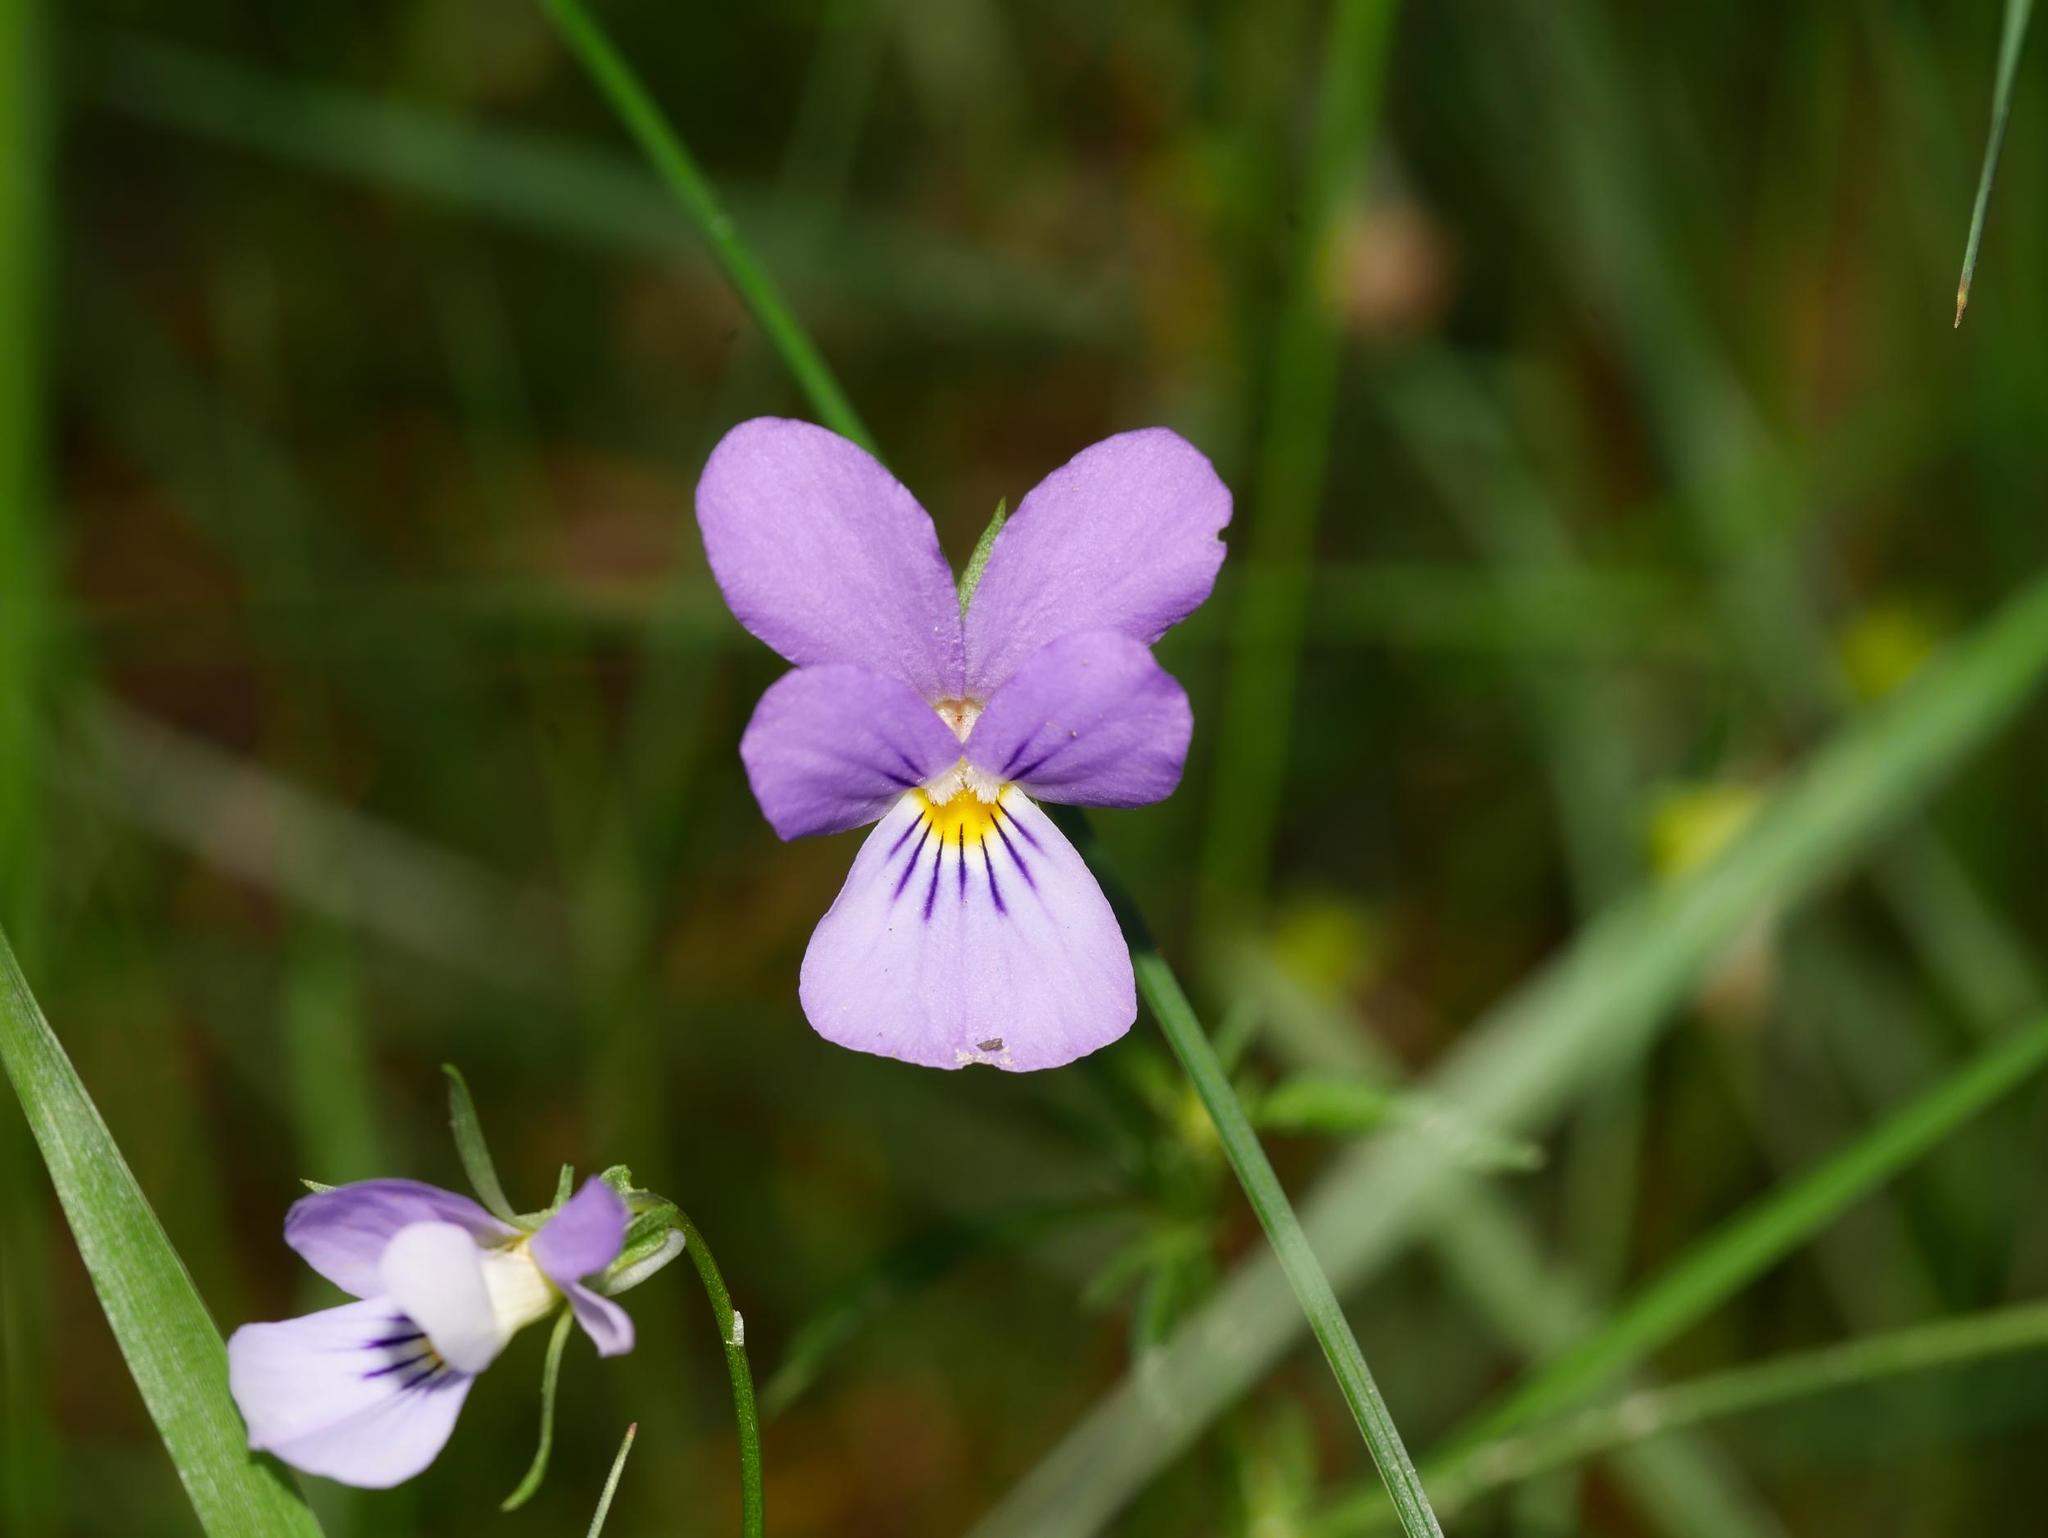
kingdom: Plantae
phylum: Tracheophyta
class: Magnoliopsida
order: Malpighiales
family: Violaceae
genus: Viola
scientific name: Viola tricolor
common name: Pansy
